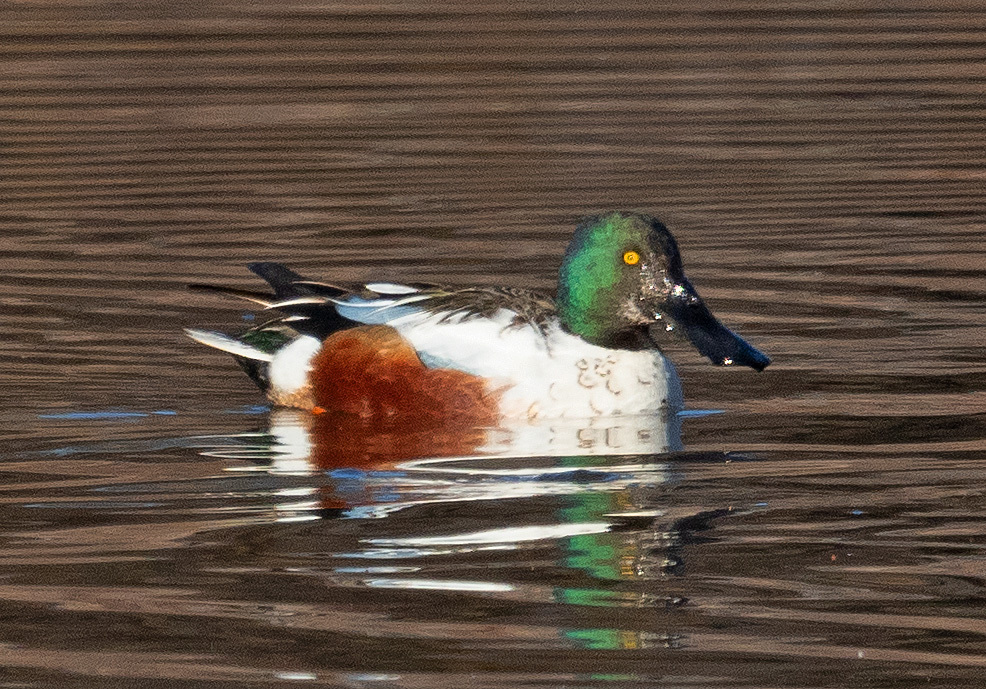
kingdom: Animalia
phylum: Chordata
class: Aves
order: Anseriformes
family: Anatidae
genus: Spatula
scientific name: Spatula clypeata
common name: Northern shoveler
